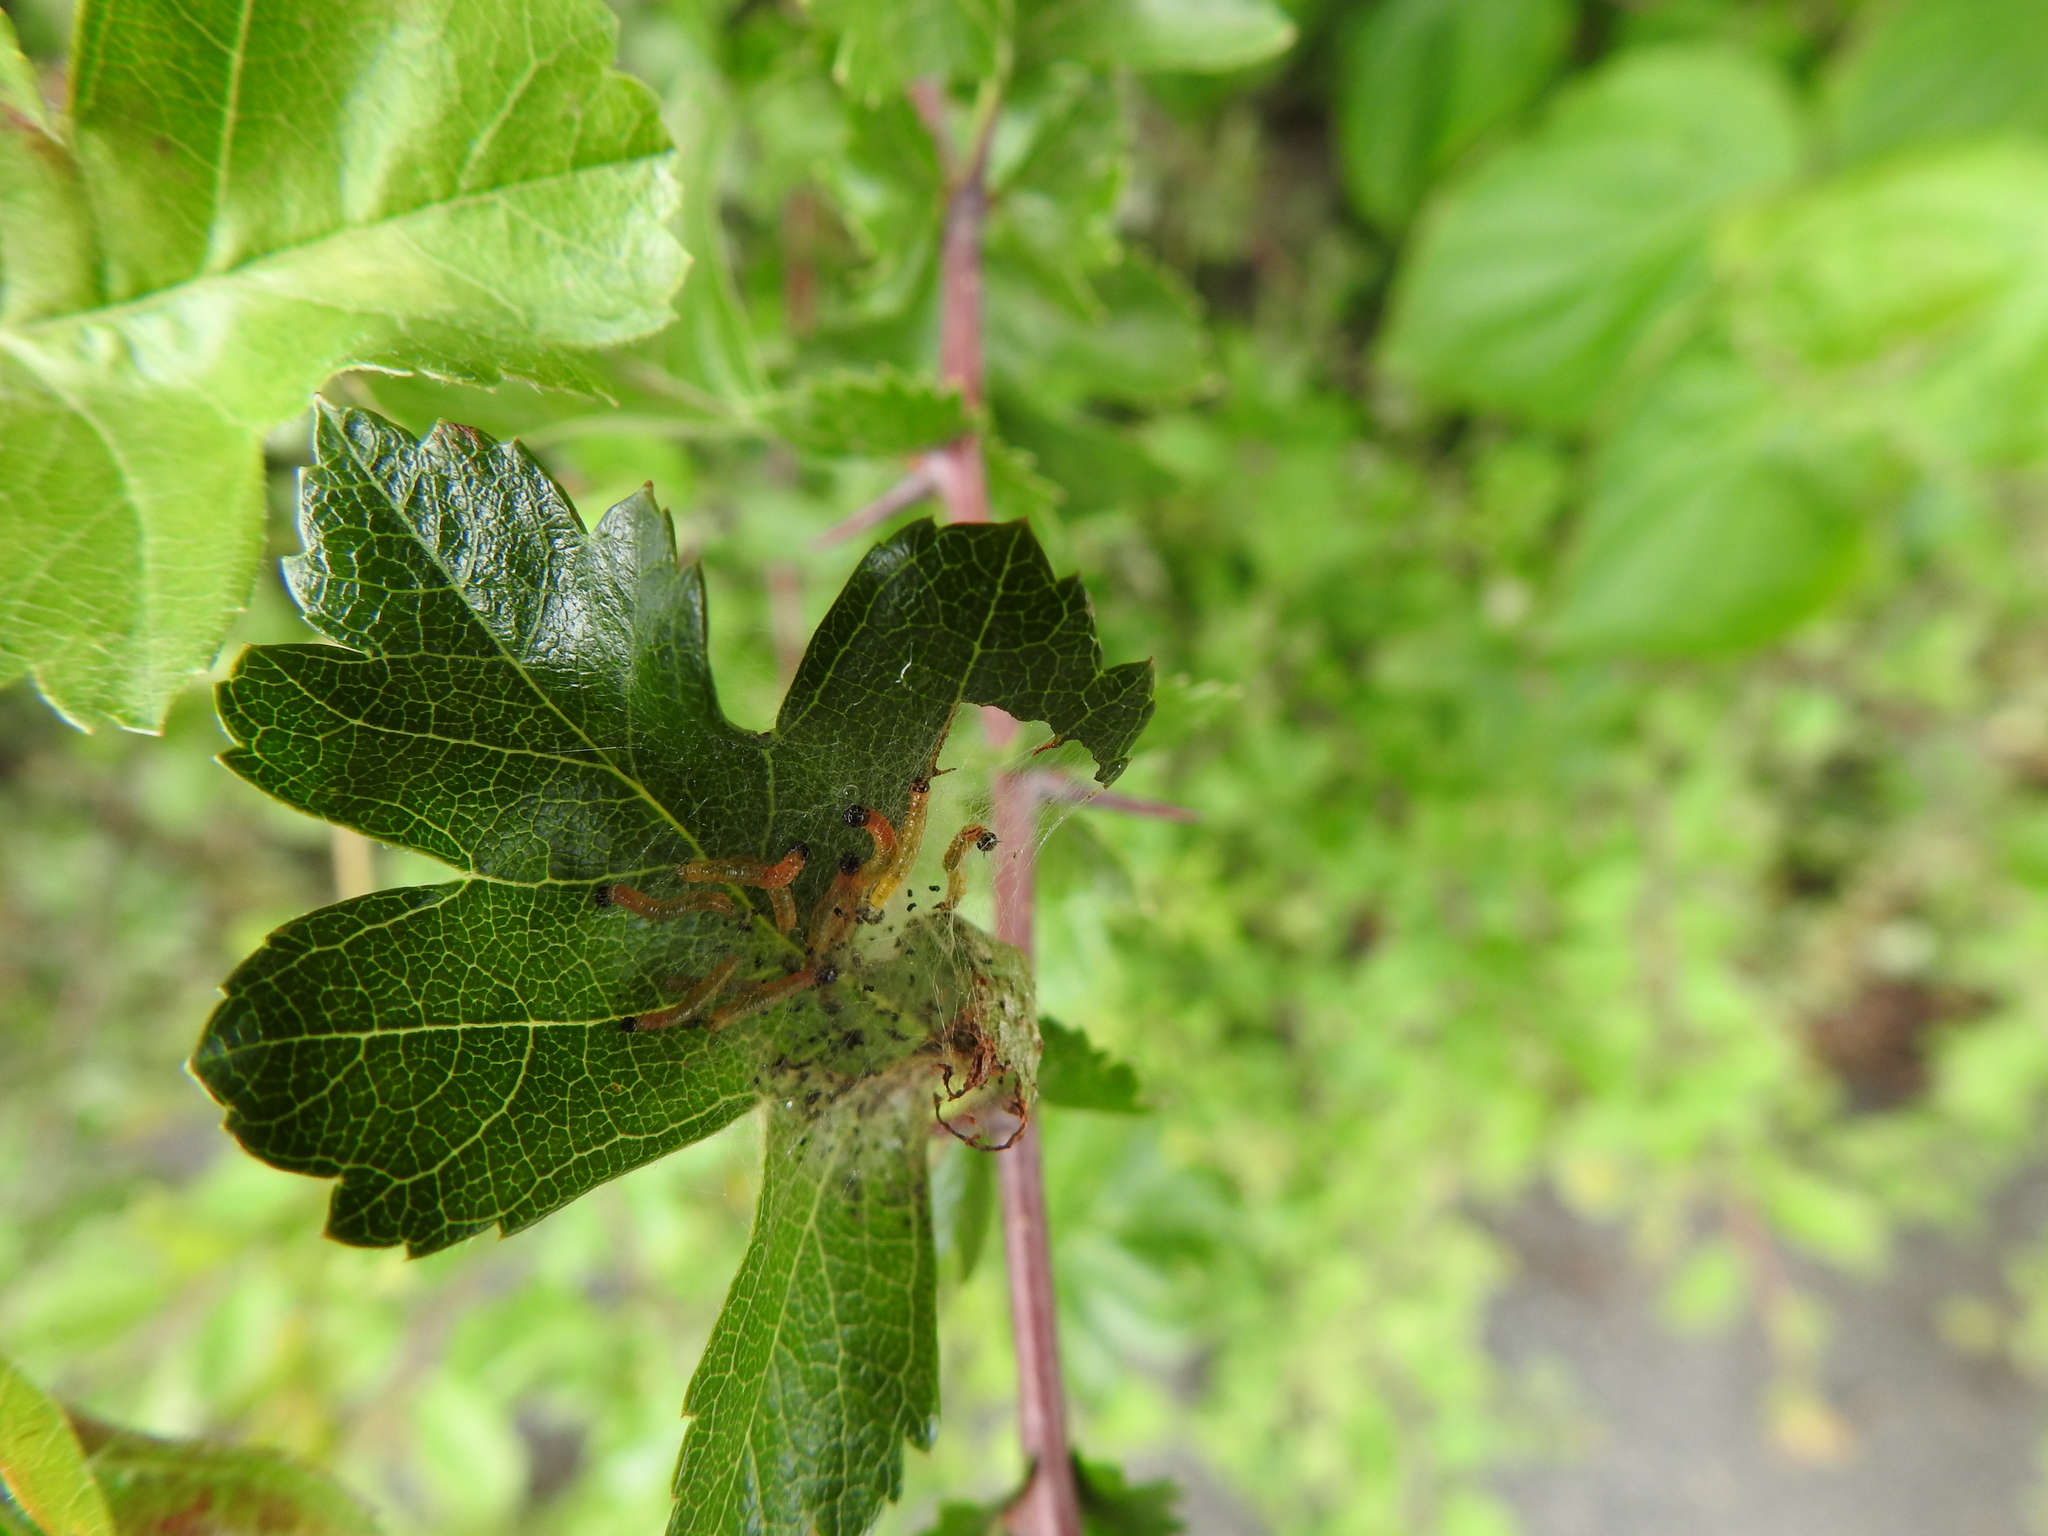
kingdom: Animalia
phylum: Arthropoda
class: Insecta
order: Hymenoptera
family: Pamphiliidae
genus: Neurotoma
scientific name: Neurotoma saltuum
